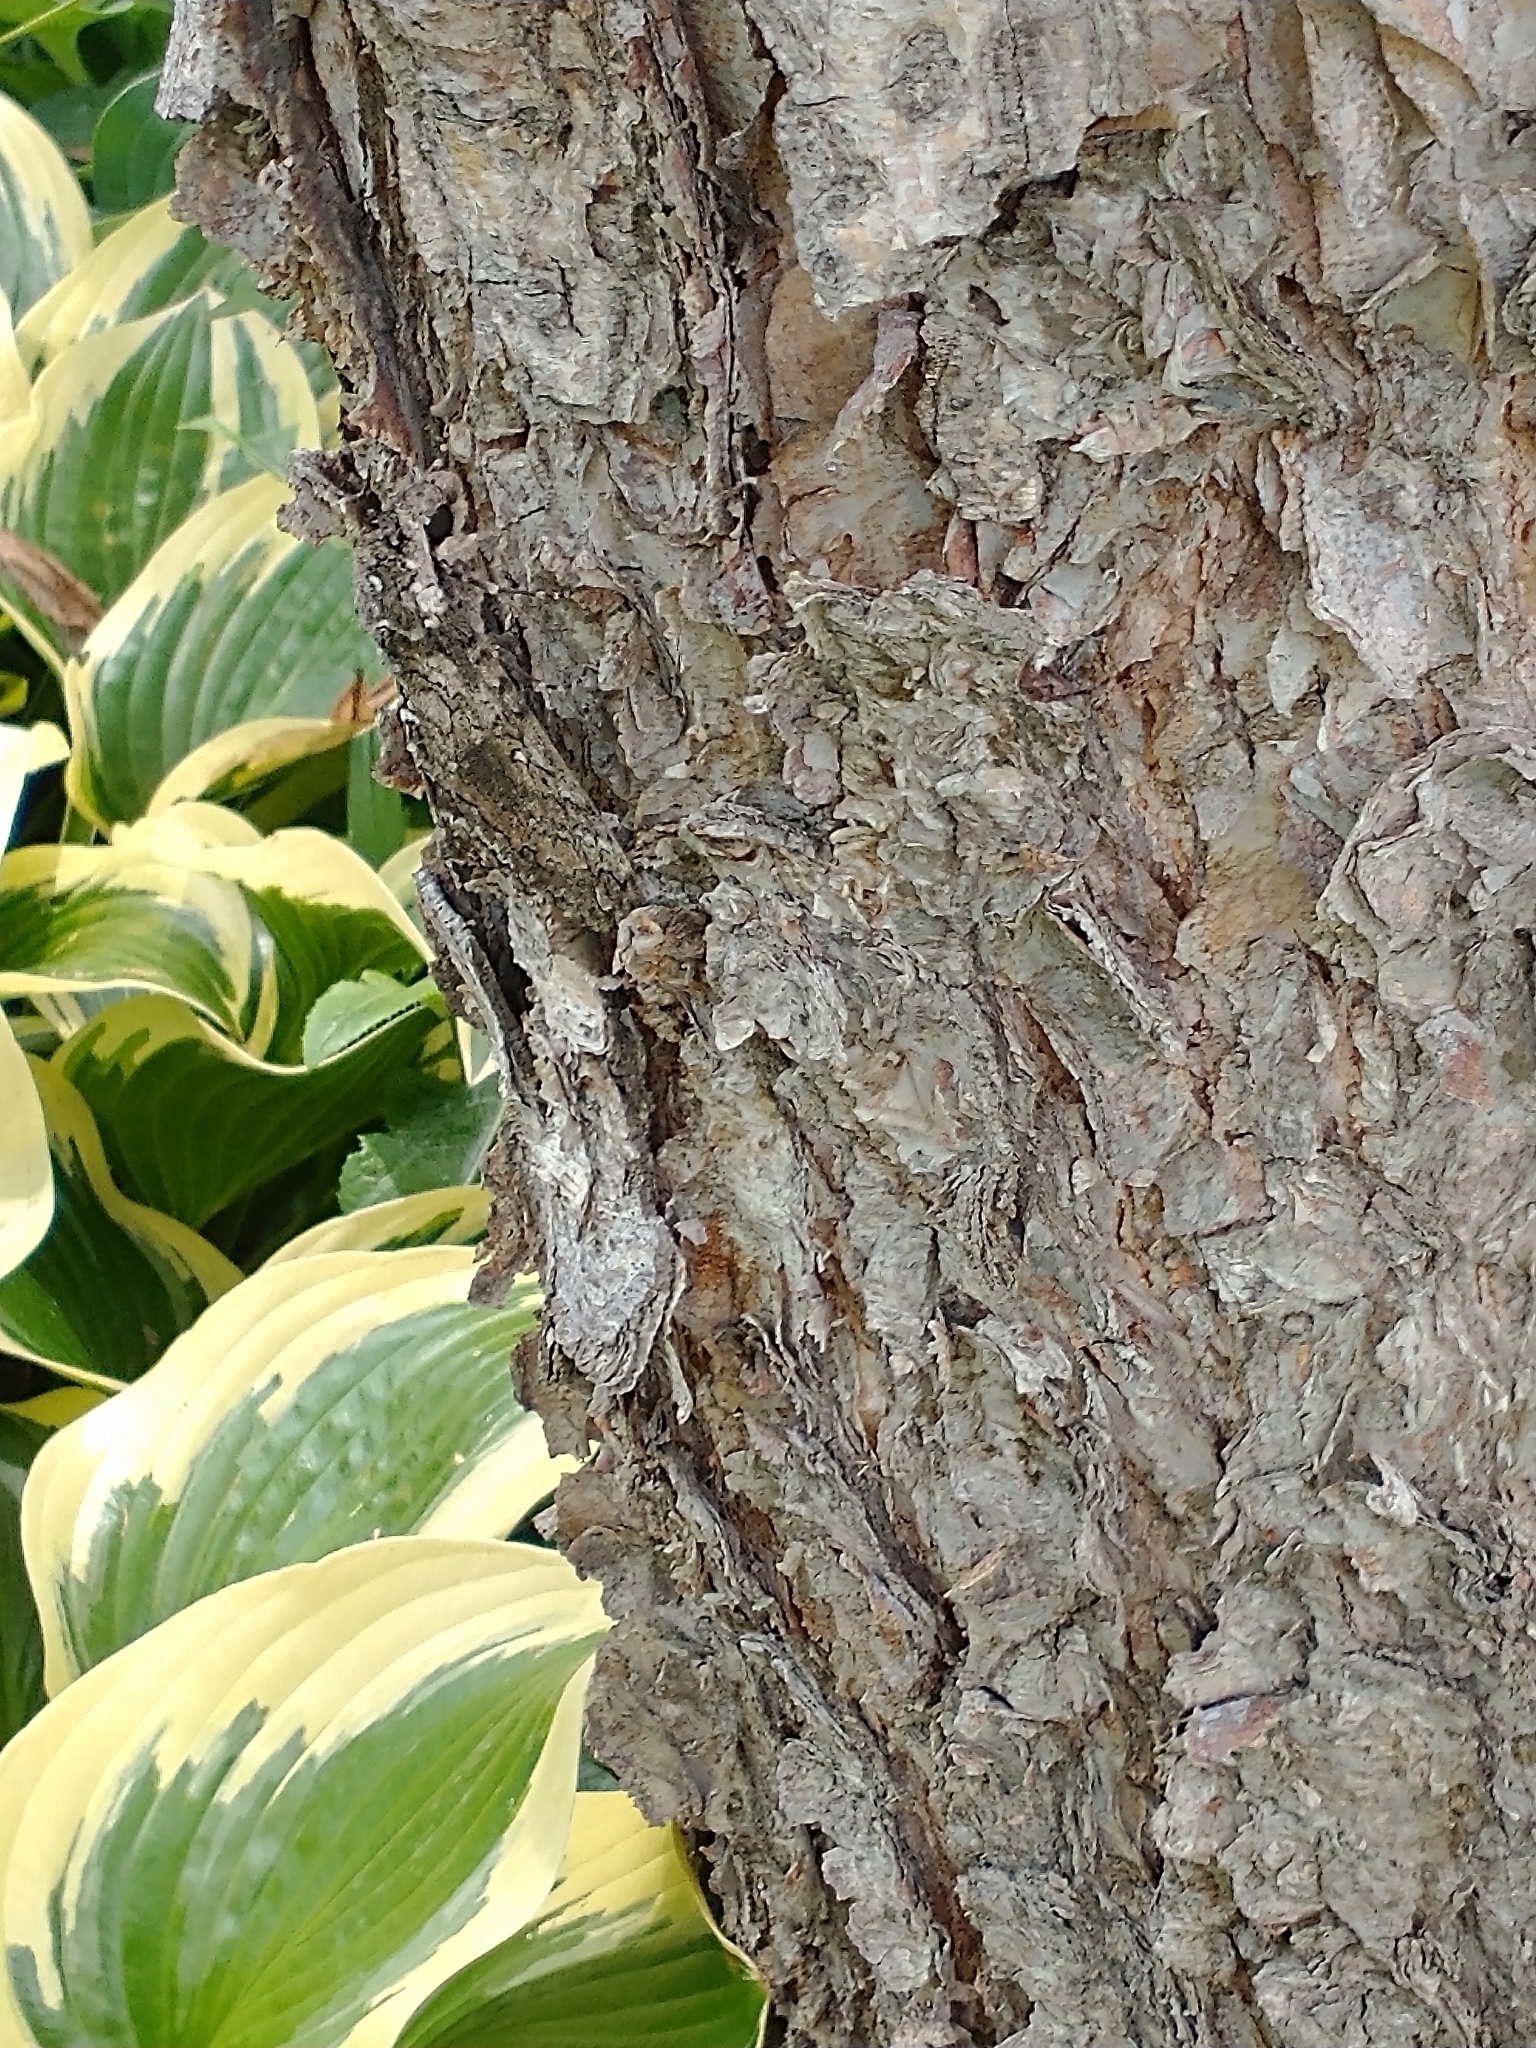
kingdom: Animalia
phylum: Arthropoda
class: Insecta
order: Lepidoptera
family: Sphingidae
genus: Manduca
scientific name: Manduca sexta
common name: Carolina sphinx
